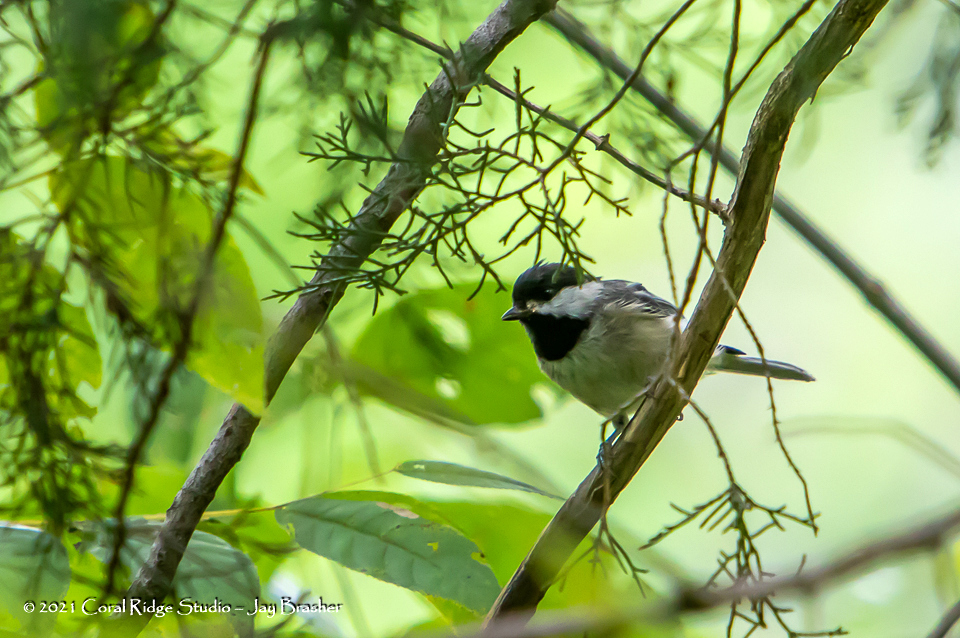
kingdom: Animalia
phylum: Chordata
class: Aves
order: Passeriformes
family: Paridae
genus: Poecile
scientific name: Poecile carolinensis
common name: Carolina chickadee
